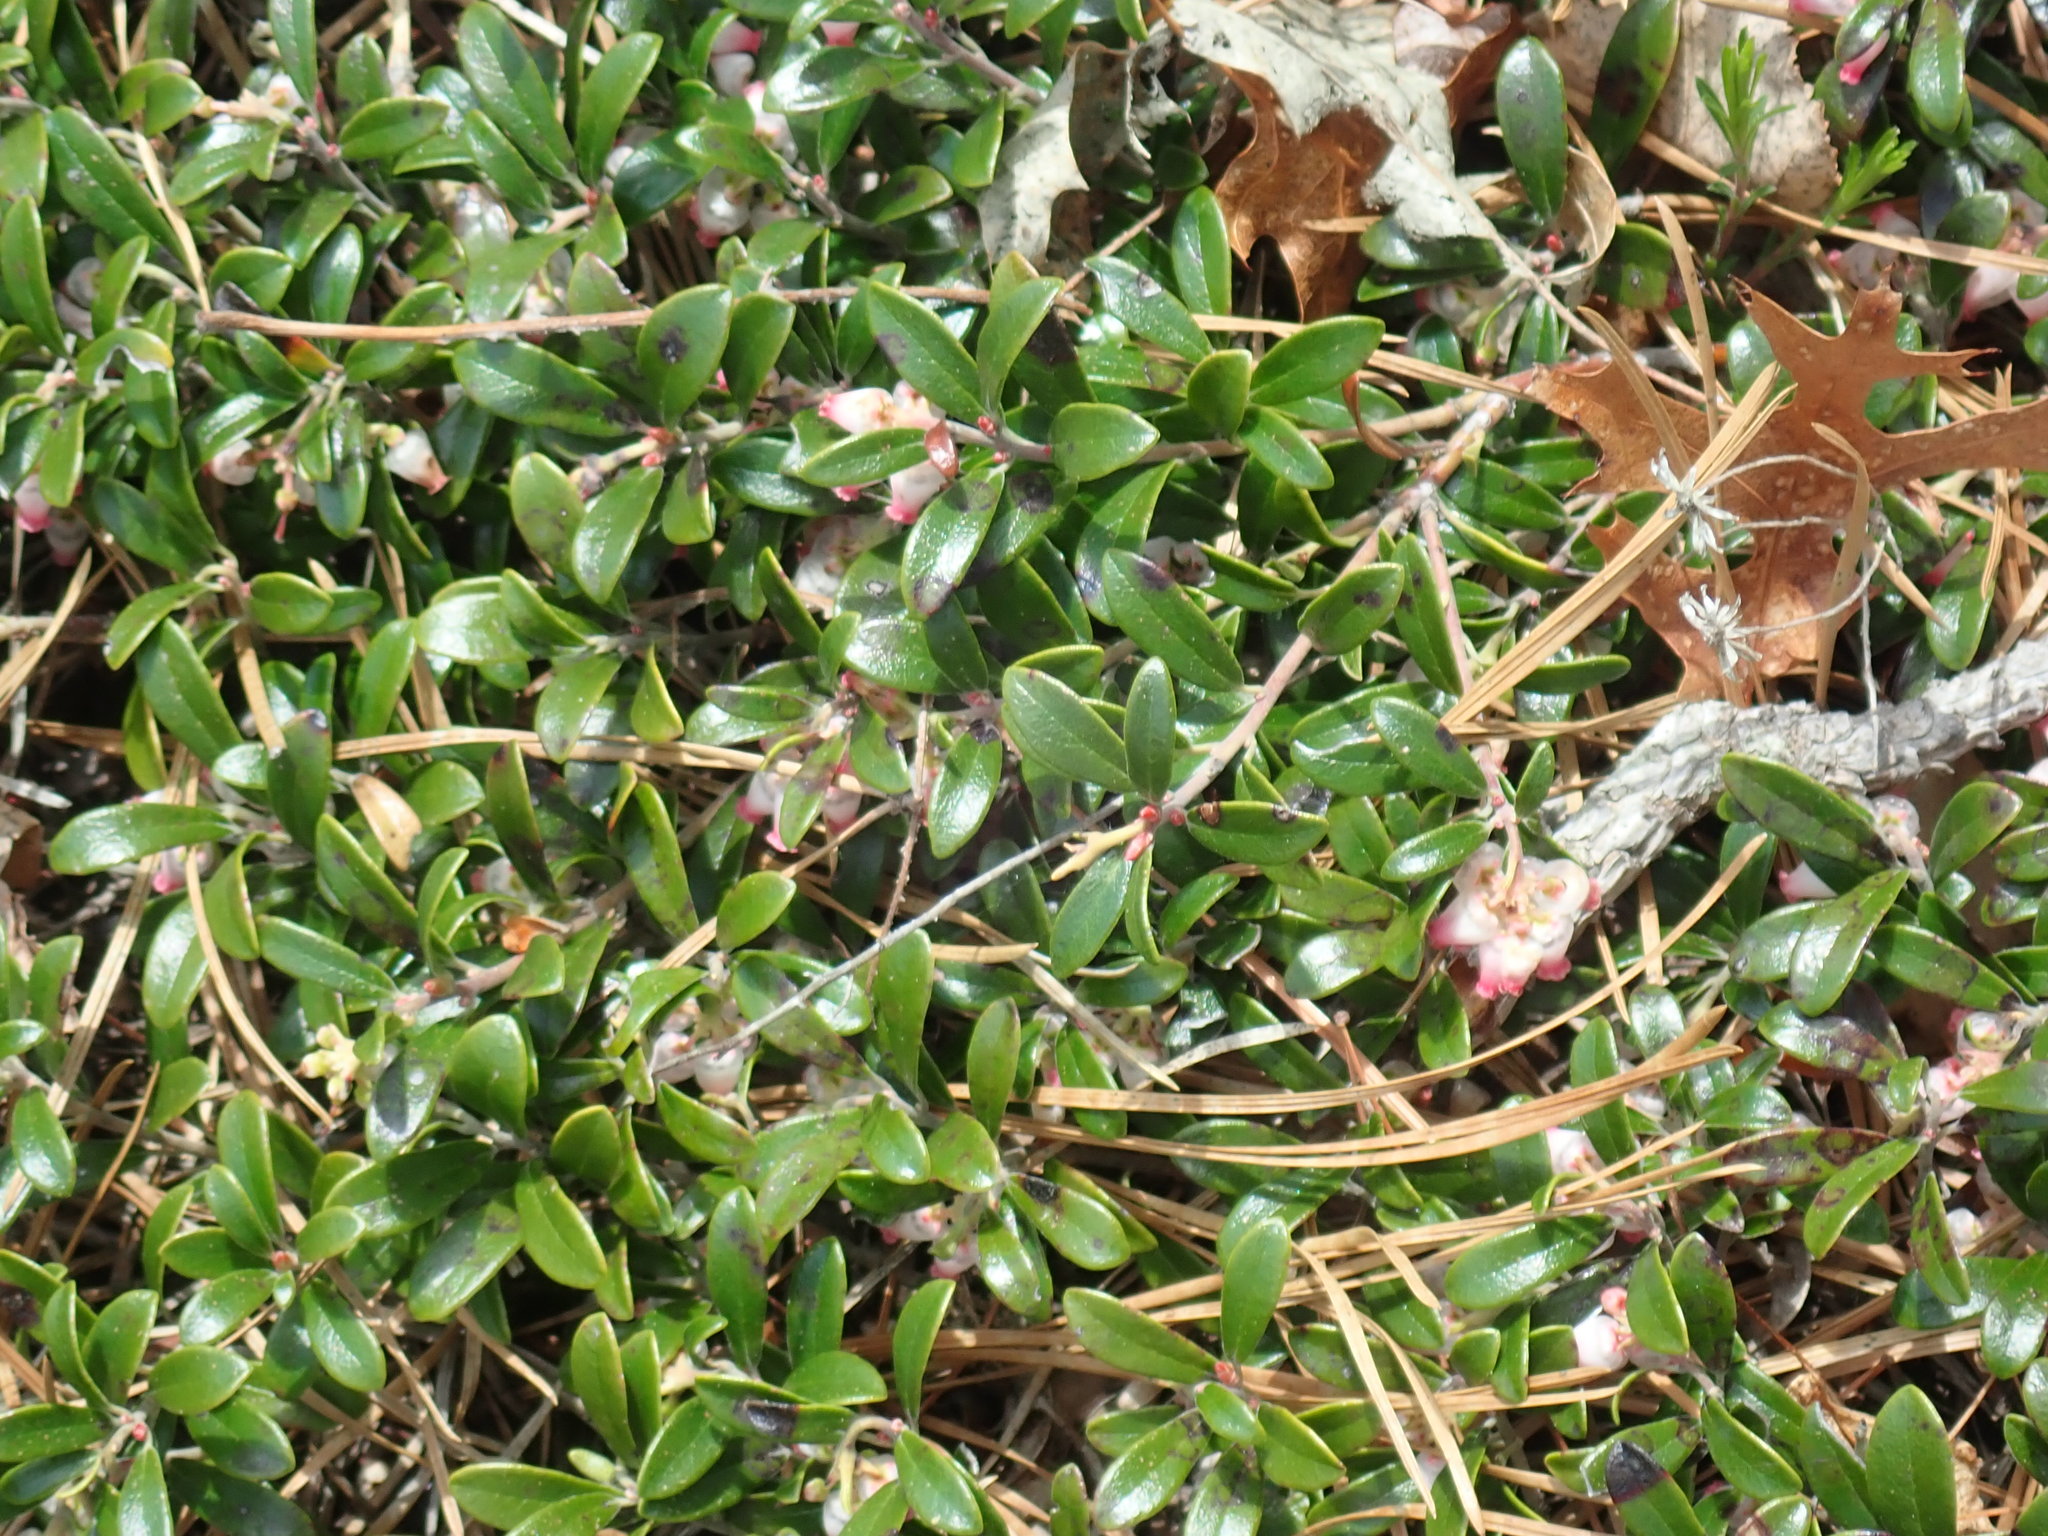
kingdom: Plantae
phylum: Tracheophyta
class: Magnoliopsida
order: Ericales
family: Ericaceae
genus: Arctostaphylos
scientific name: Arctostaphylos uva-ursi
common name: Bearberry
